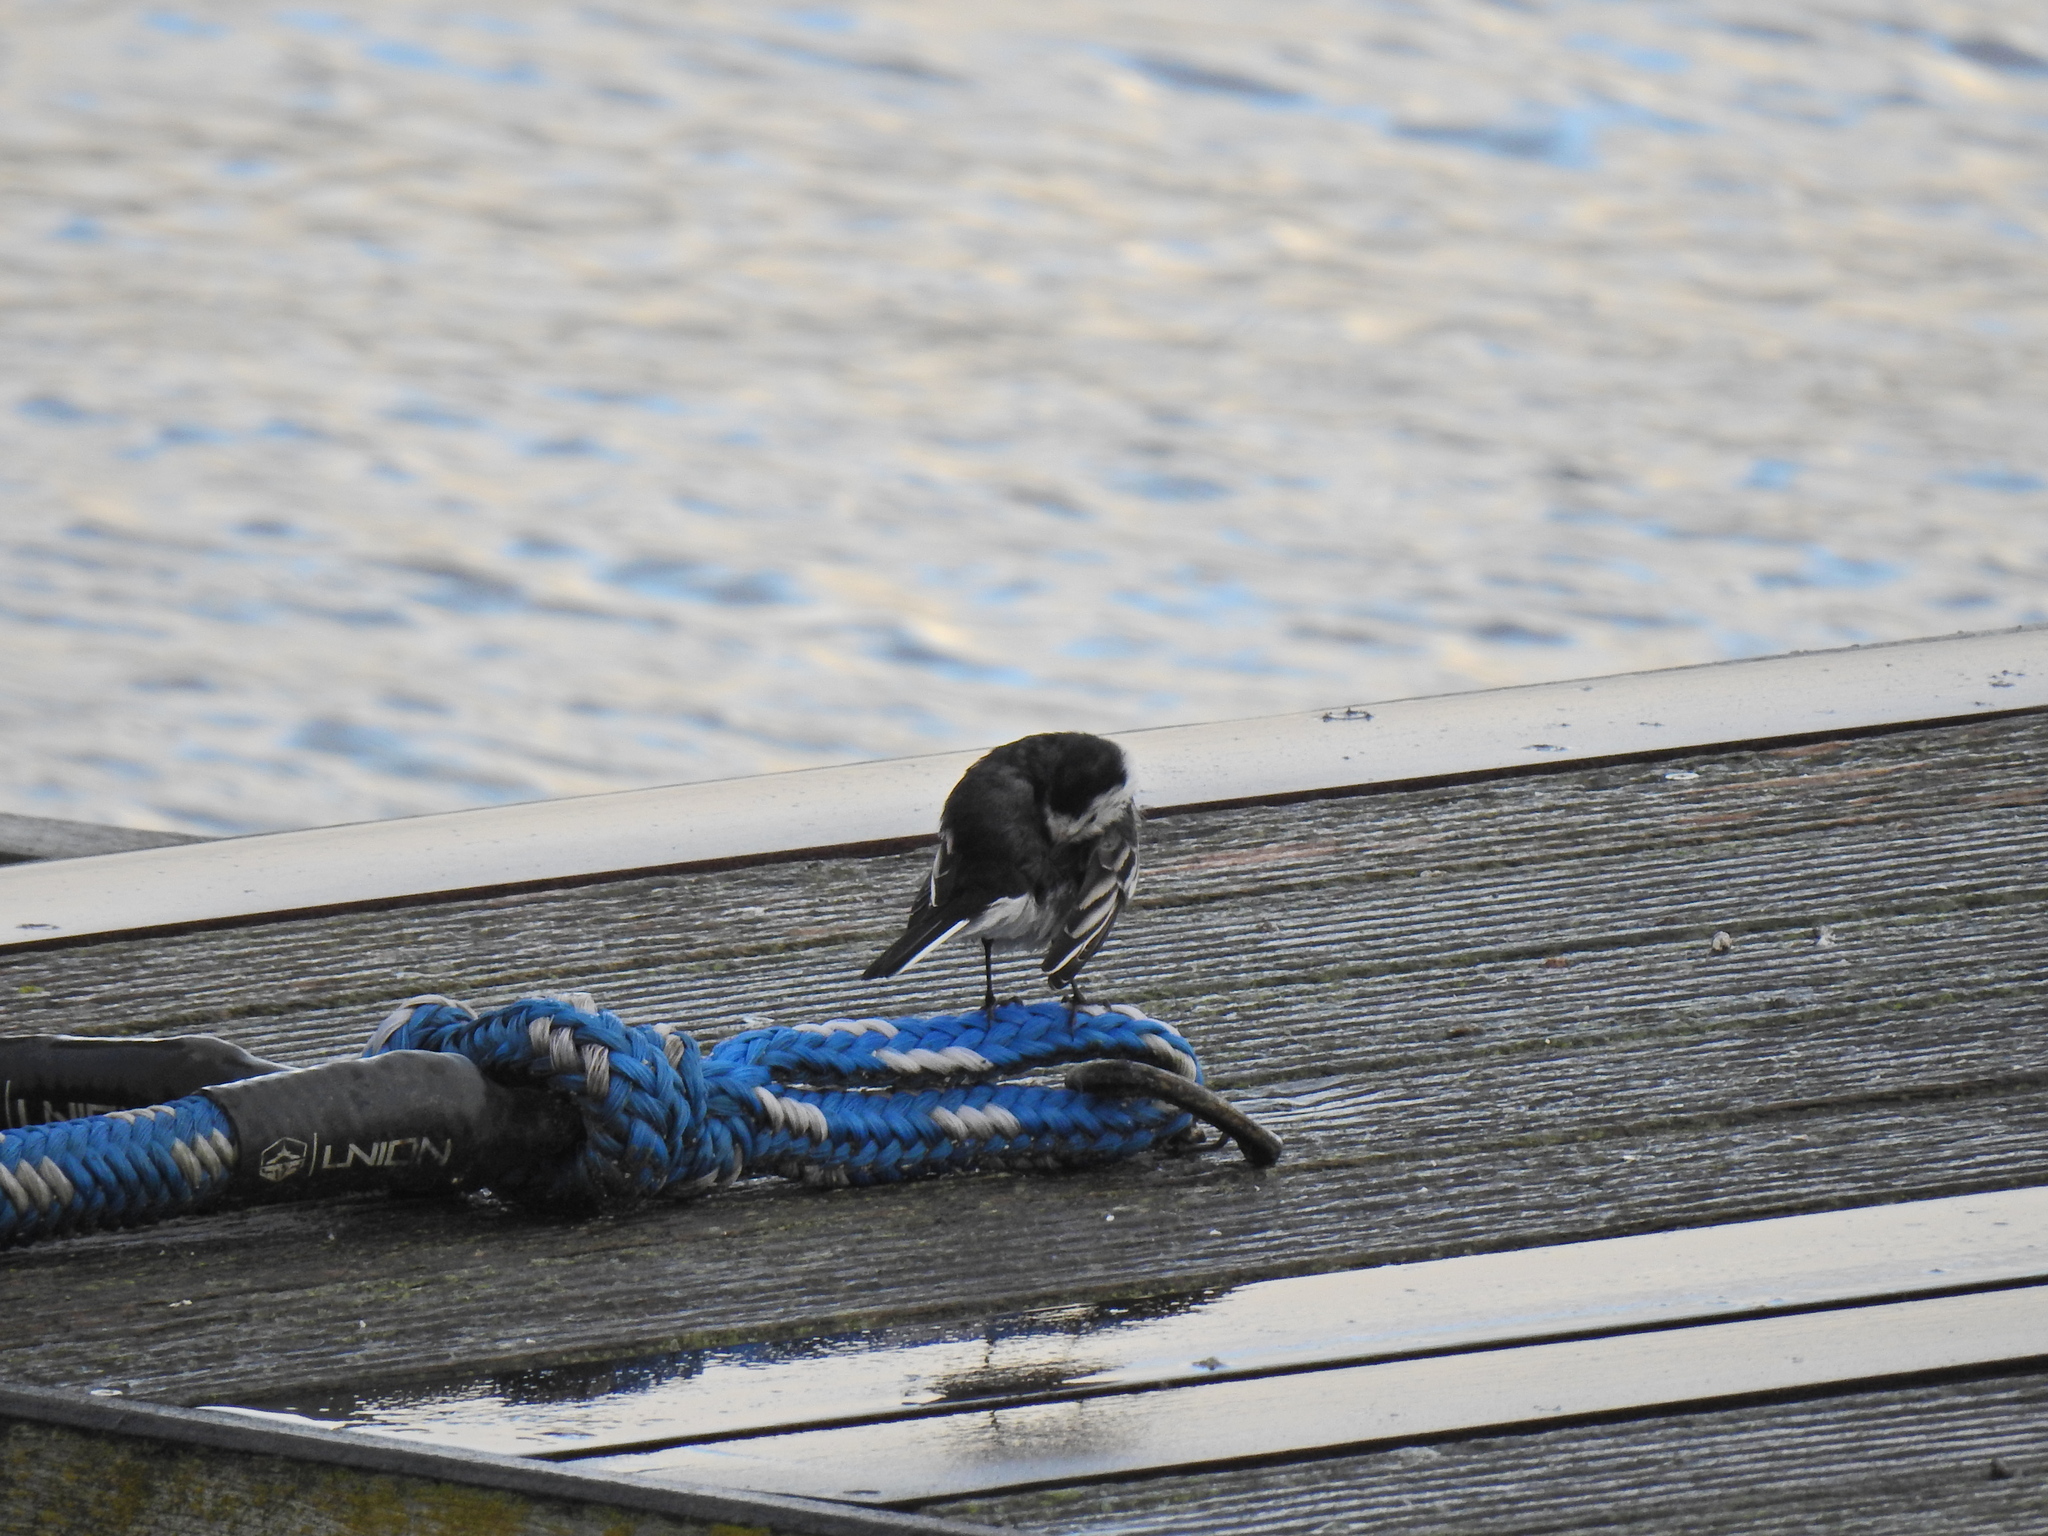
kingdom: Animalia
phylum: Chordata
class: Aves
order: Passeriformes
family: Motacillidae
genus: Motacilla
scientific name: Motacilla alba
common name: White wagtail
